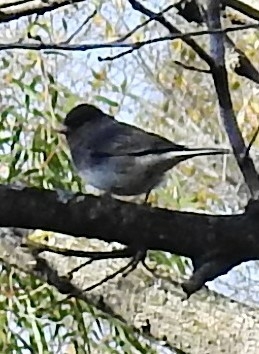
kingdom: Animalia
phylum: Chordata
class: Aves
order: Passeriformes
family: Passerellidae
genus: Junco
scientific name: Junco hyemalis
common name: Dark-eyed junco
